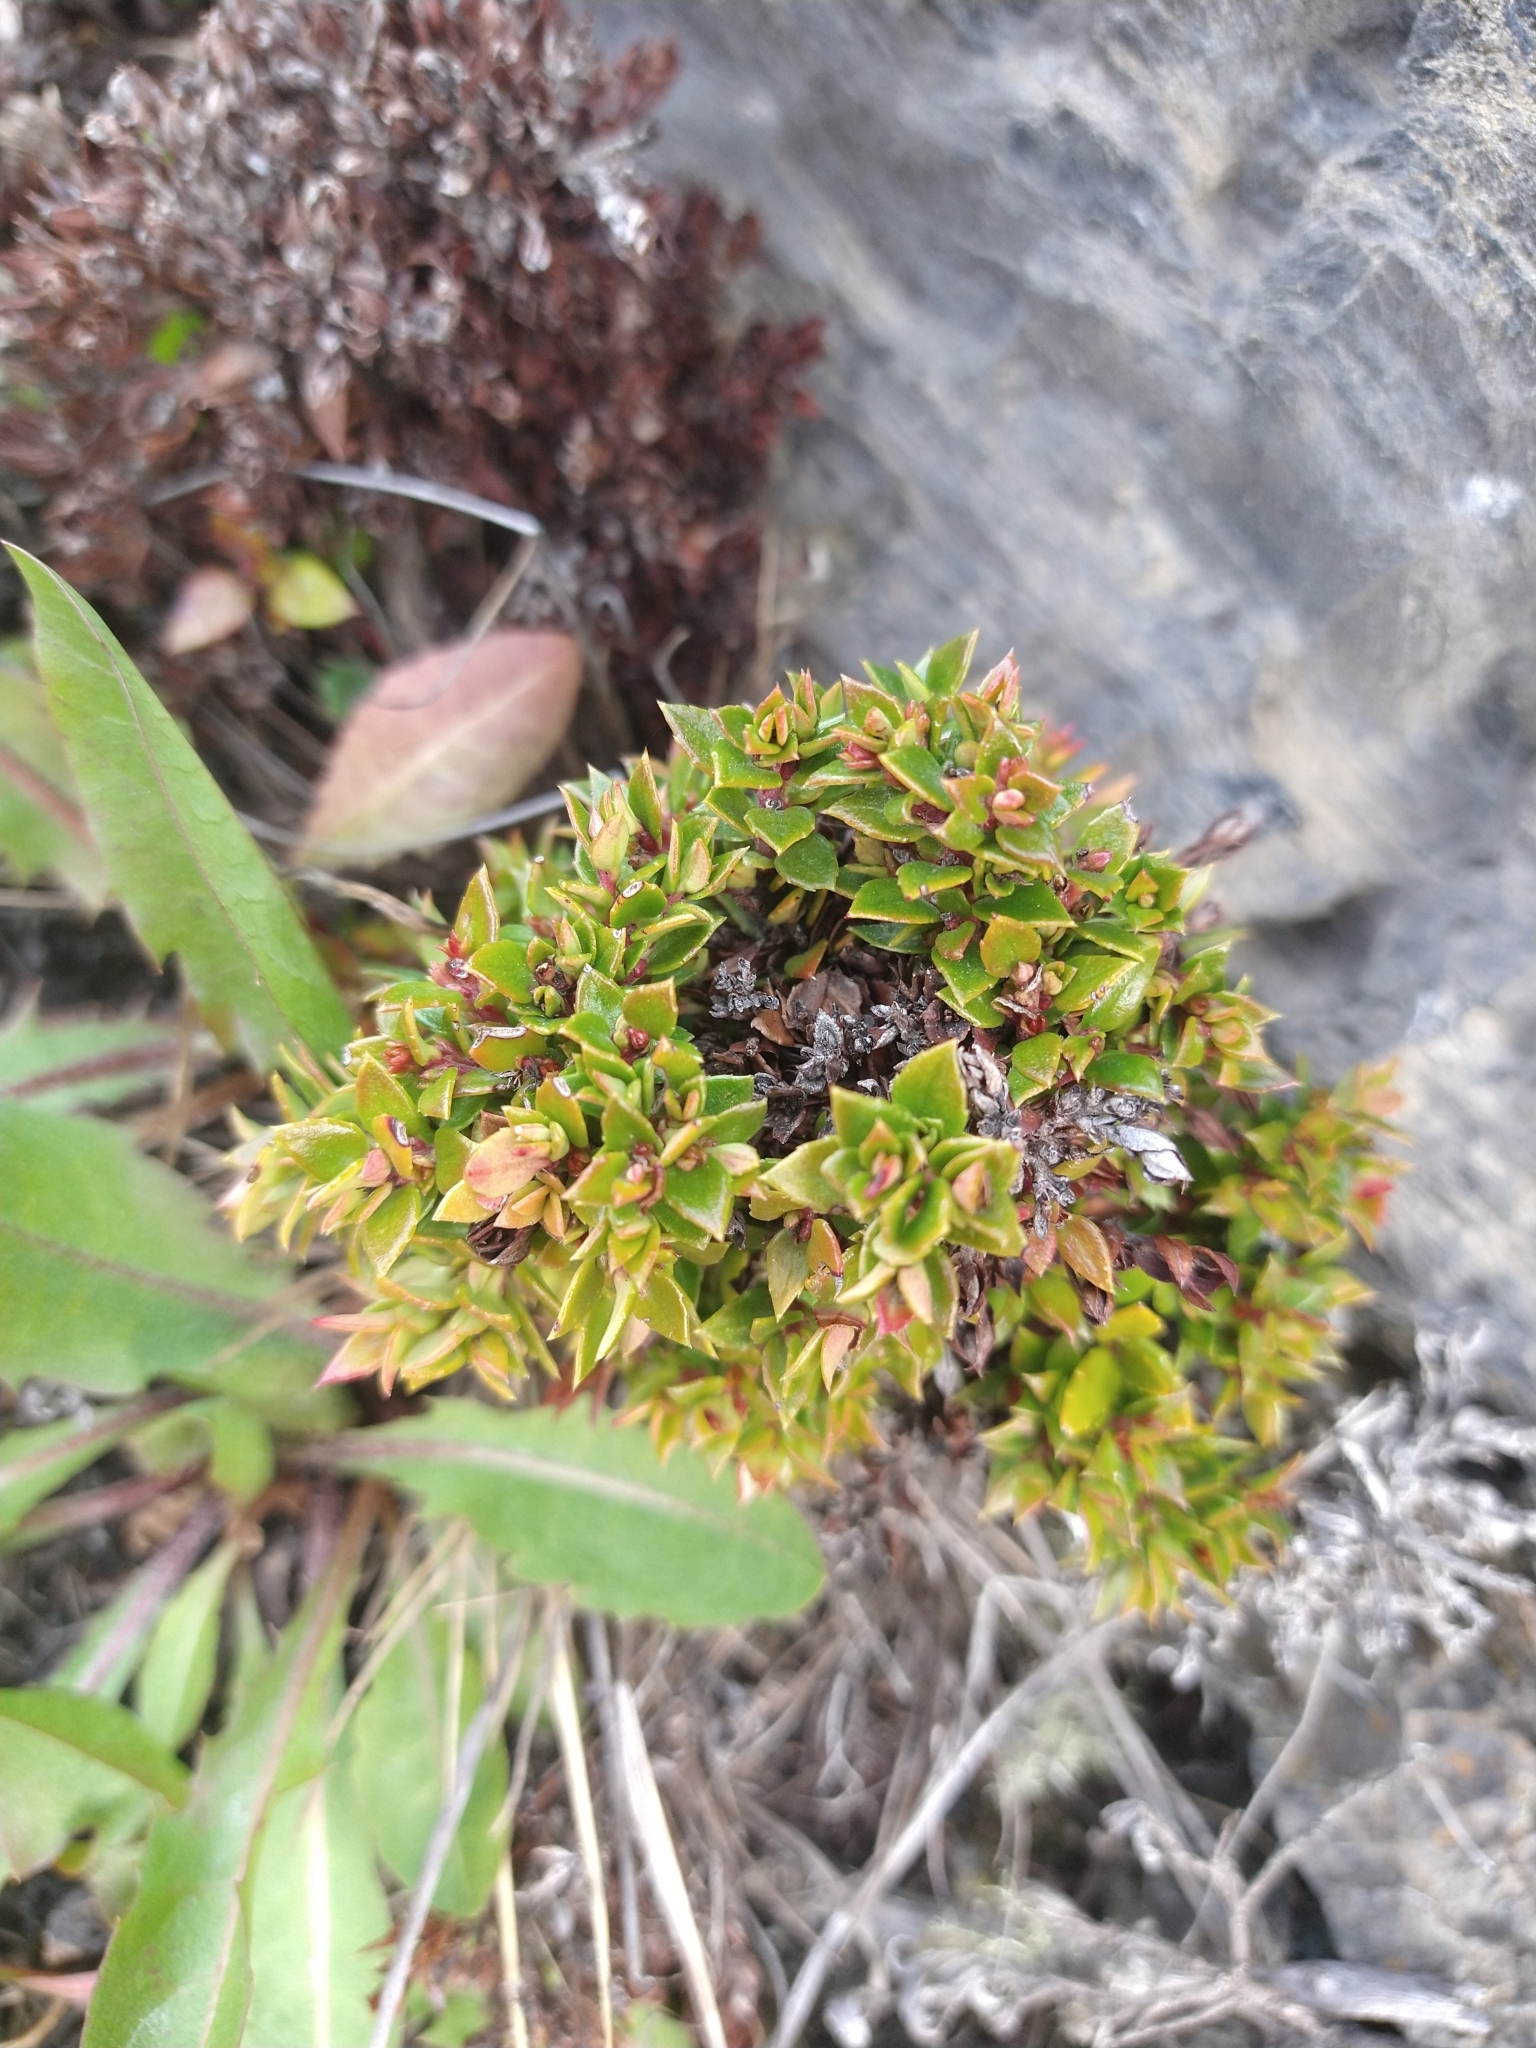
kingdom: Plantae
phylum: Tracheophyta
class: Magnoliopsida
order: Ericales
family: Ericaceae
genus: Gaultheria
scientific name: Gaultheria mucronata
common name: Prickly heath
